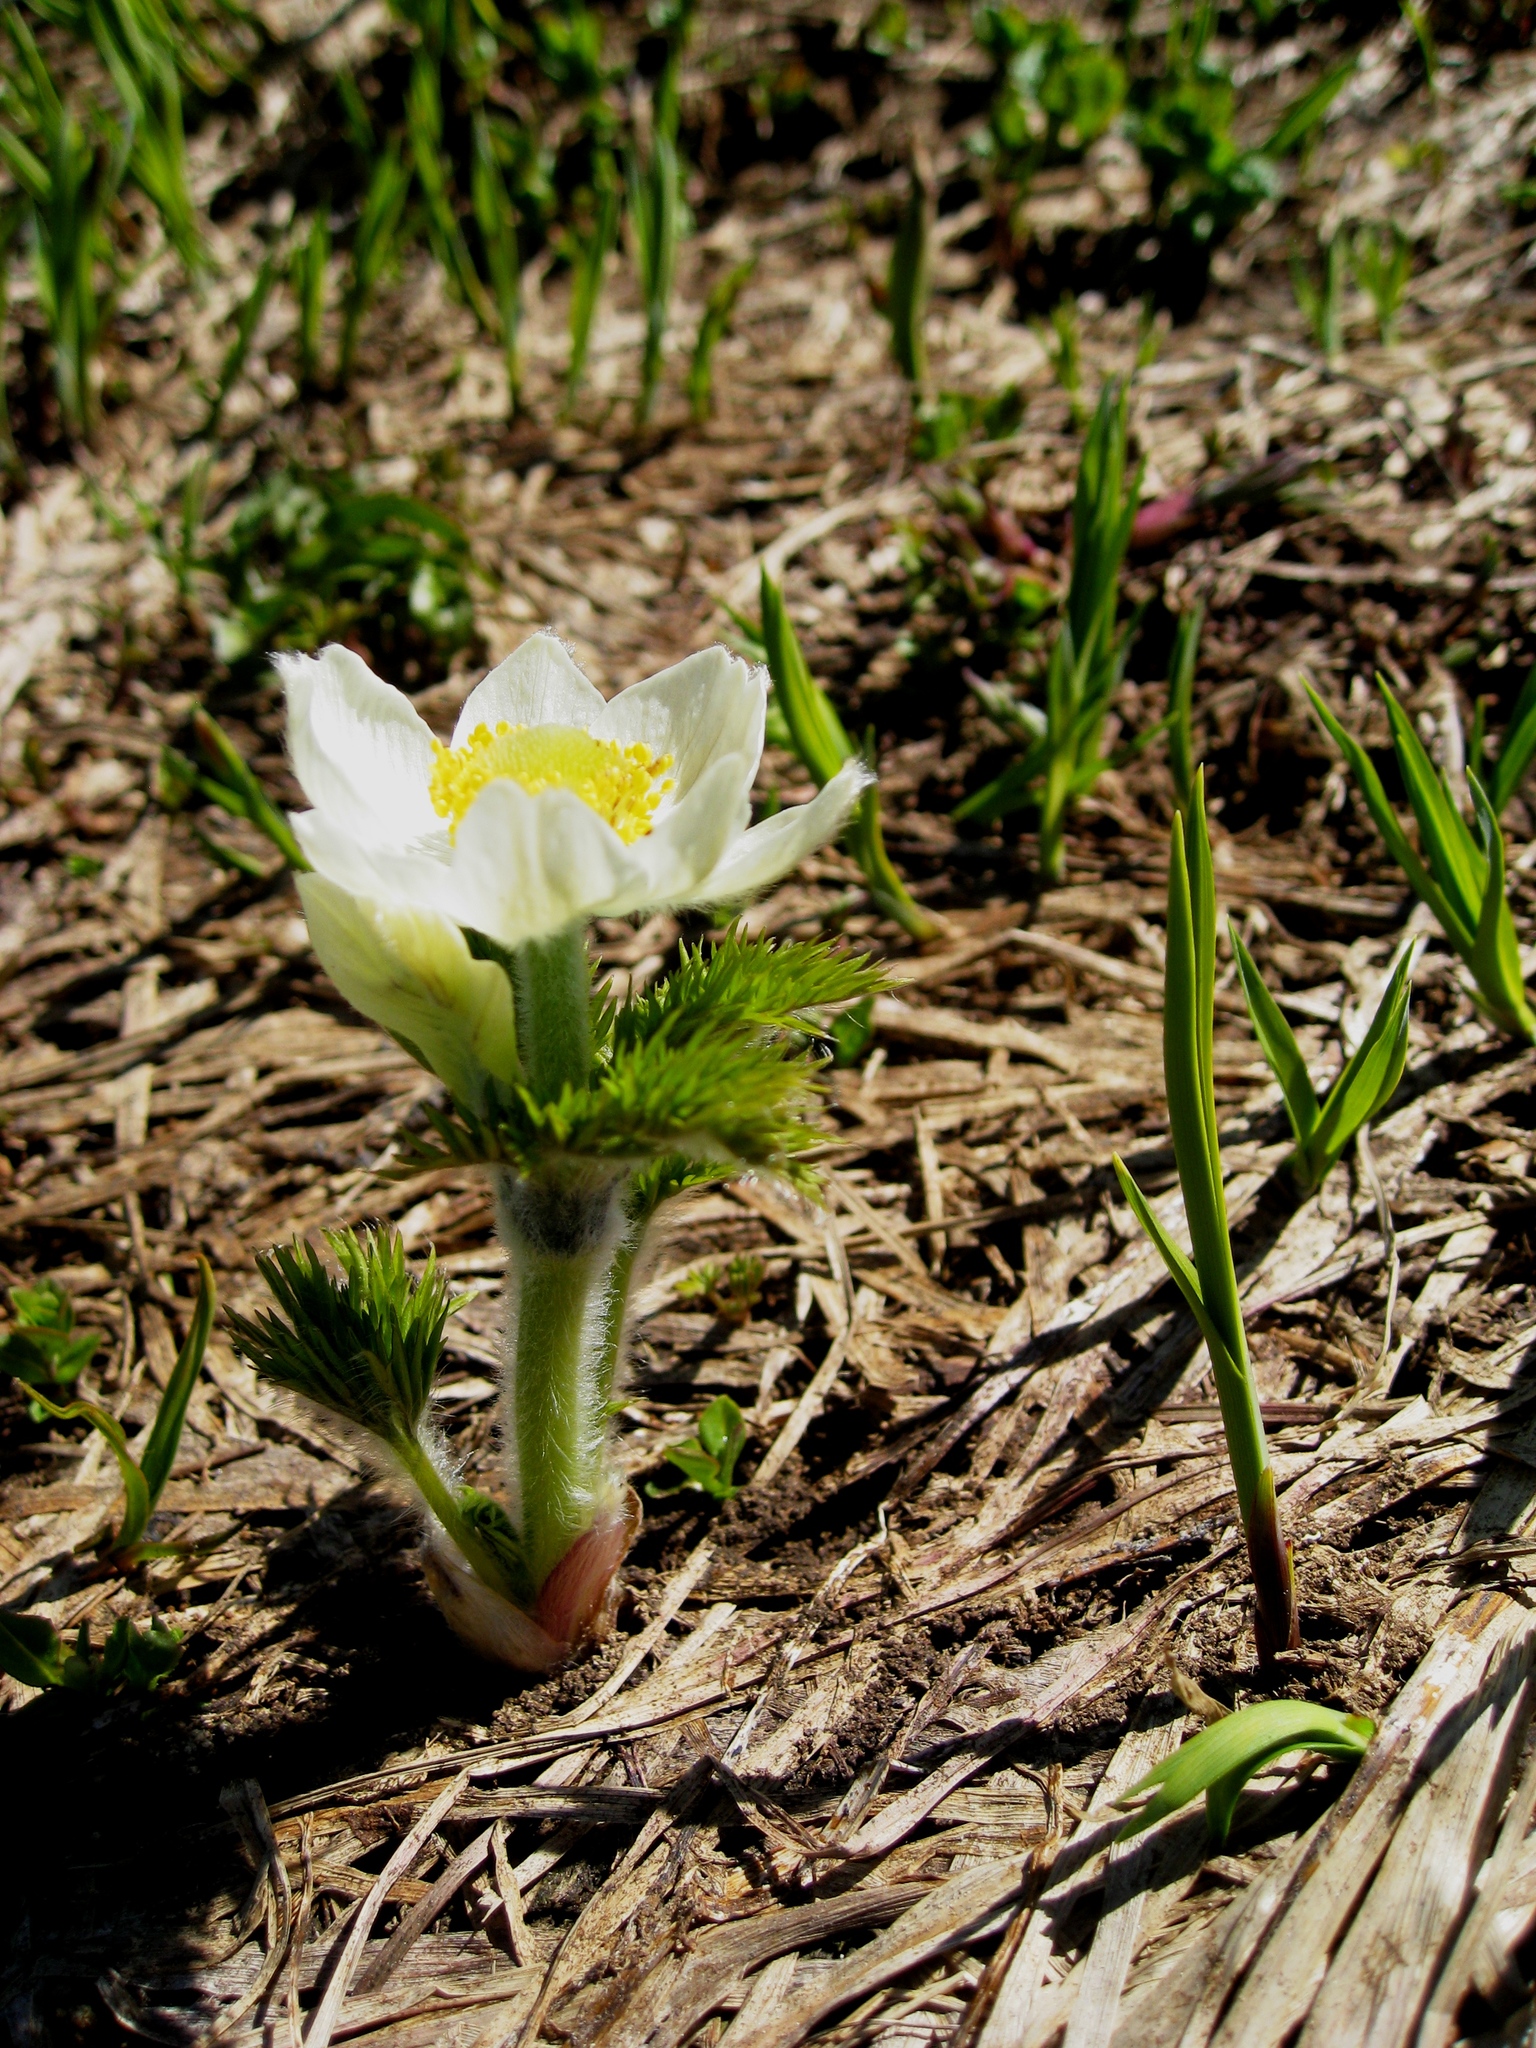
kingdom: Plantae
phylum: Tracheophyta
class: Magnoliopsida
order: Ranunculales
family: Ranunculaceae
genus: Pulsatilla
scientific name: Pulsatilla occidentalis
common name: Mountain pasqueflower
